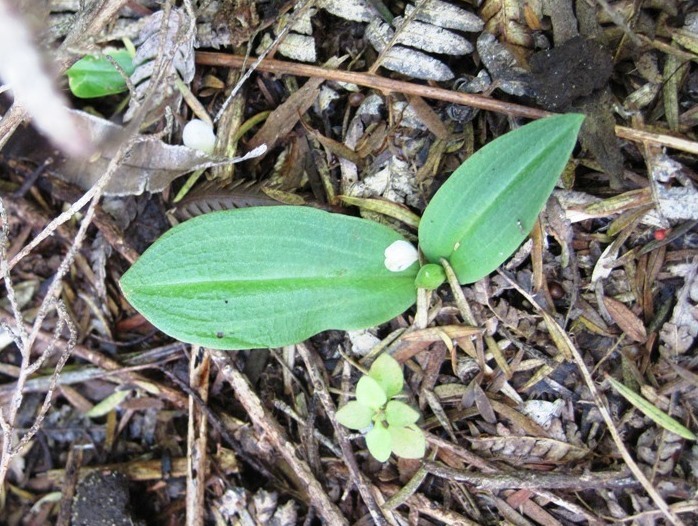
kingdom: Plantae
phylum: Tracheophyta
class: Liliopsida
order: Asparagales
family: Orchidaceae
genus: Chiloglottis
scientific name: Chiloglottis cornuta
